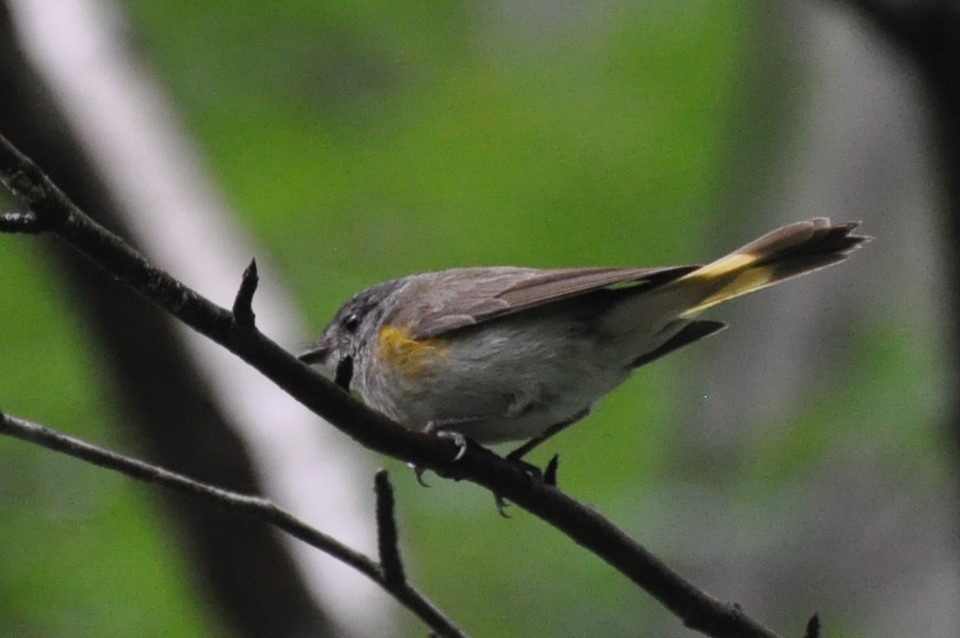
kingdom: Animalia
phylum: Chordata
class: Aves
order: Passeriformes
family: Parulidae
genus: Setophaga
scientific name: Setophaga ruticilla
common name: American redstart
